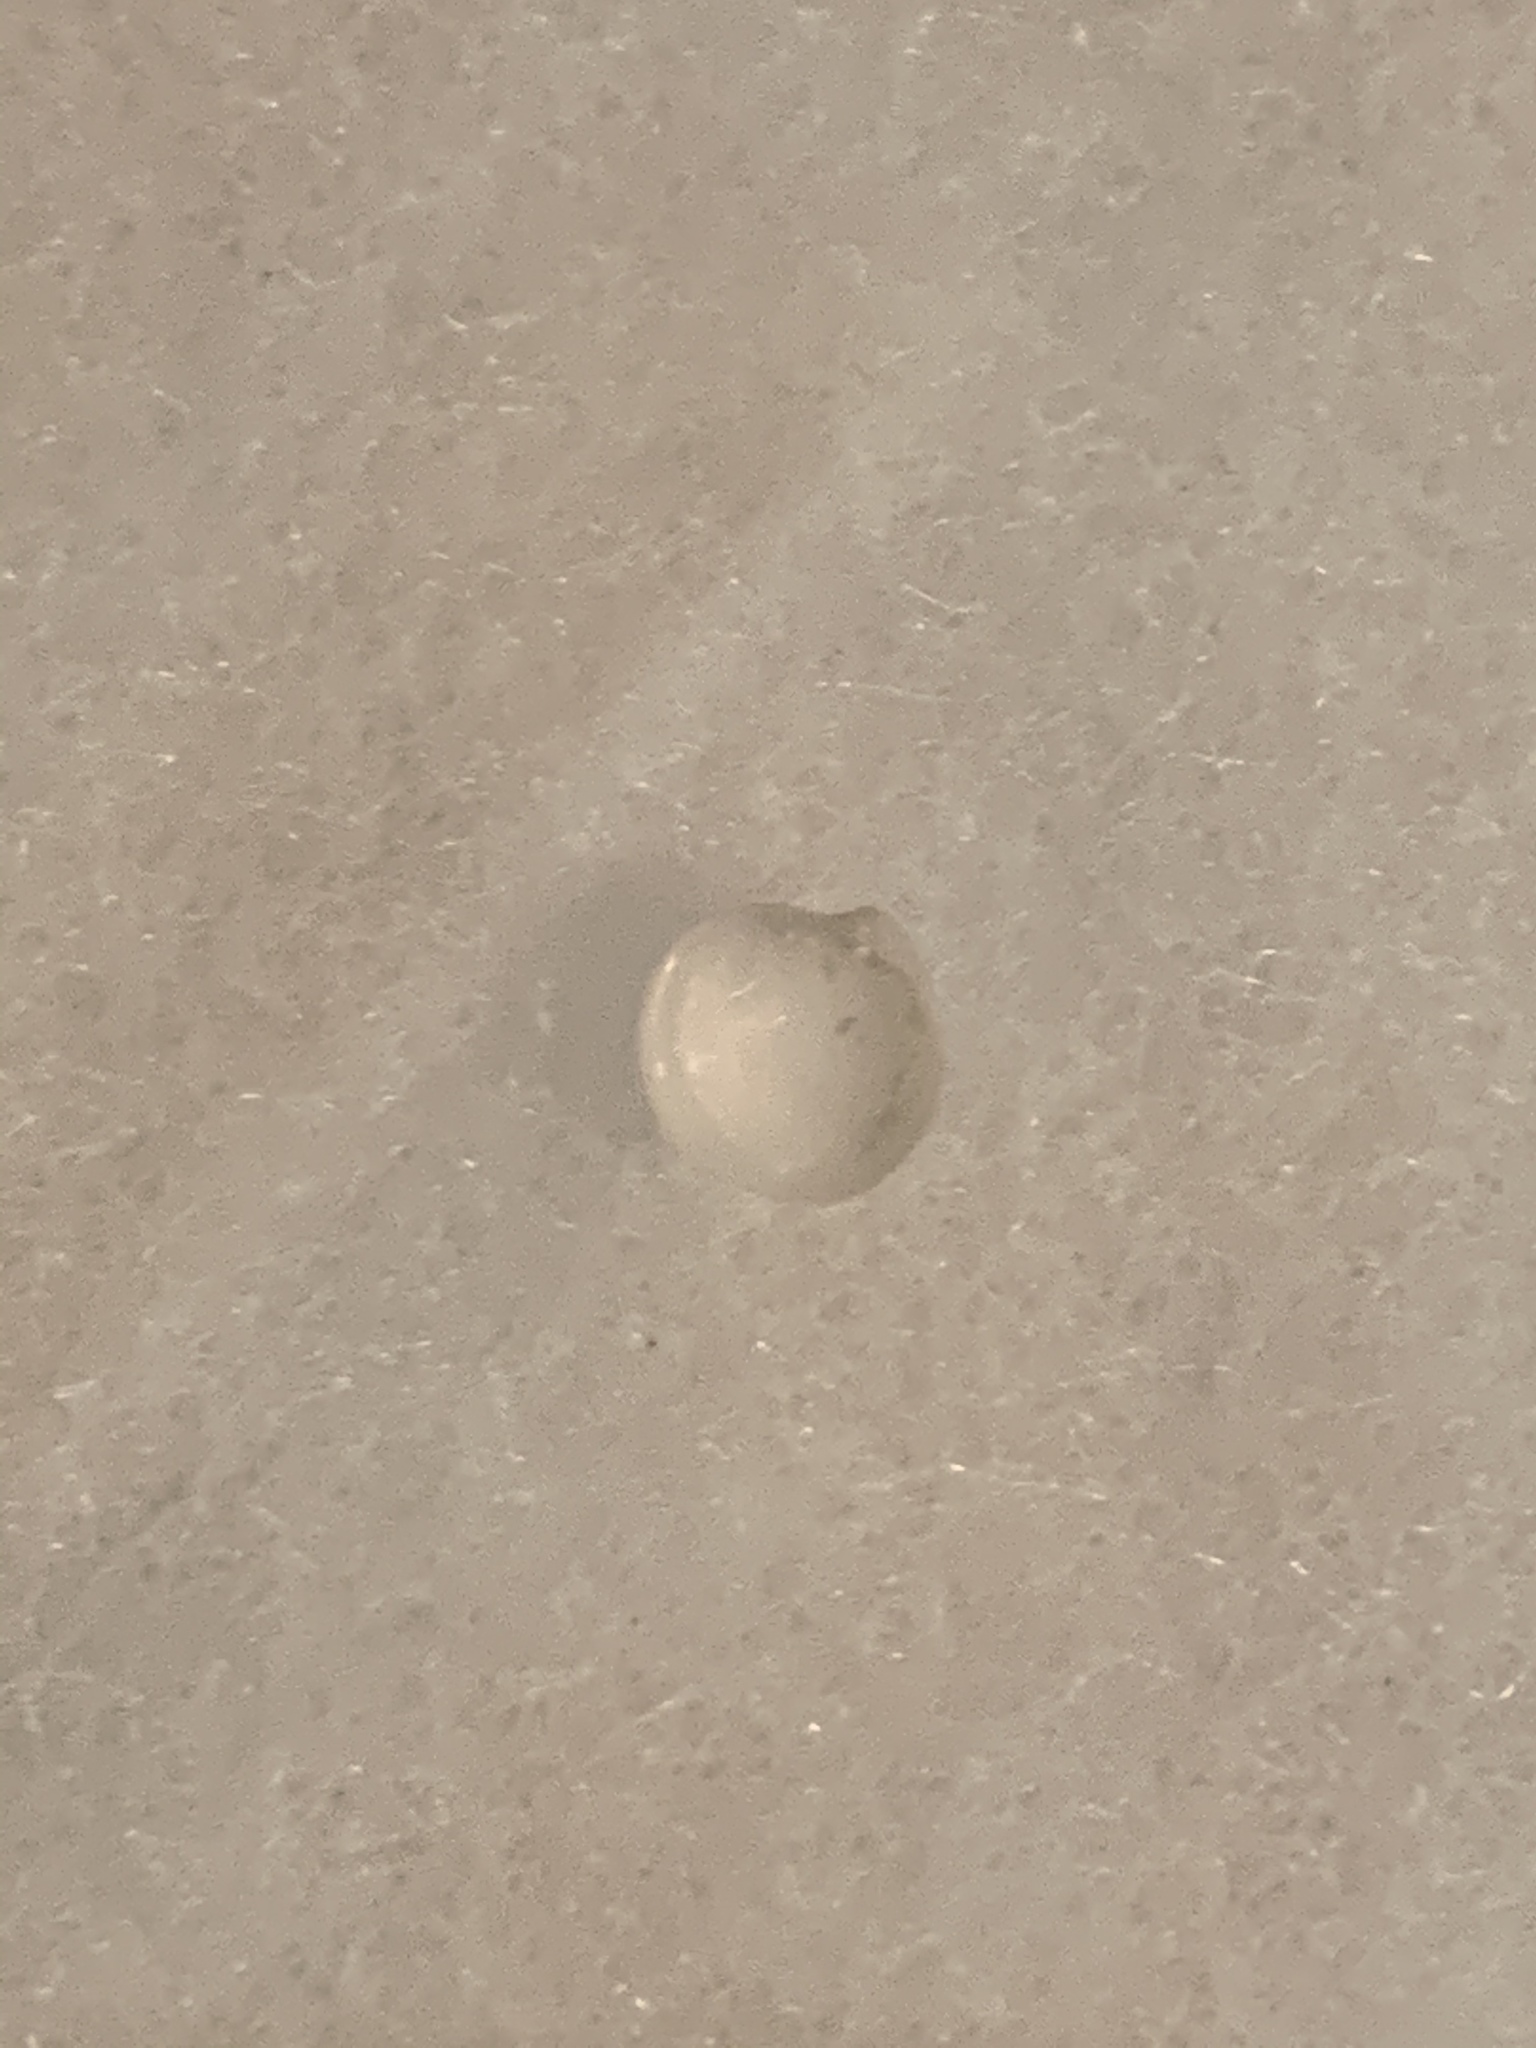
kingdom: Animalia
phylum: Mollusca
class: Bivalvia
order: Lucinida
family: Lucinidae
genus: Parvilucina
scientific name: Parvilucina crenella
